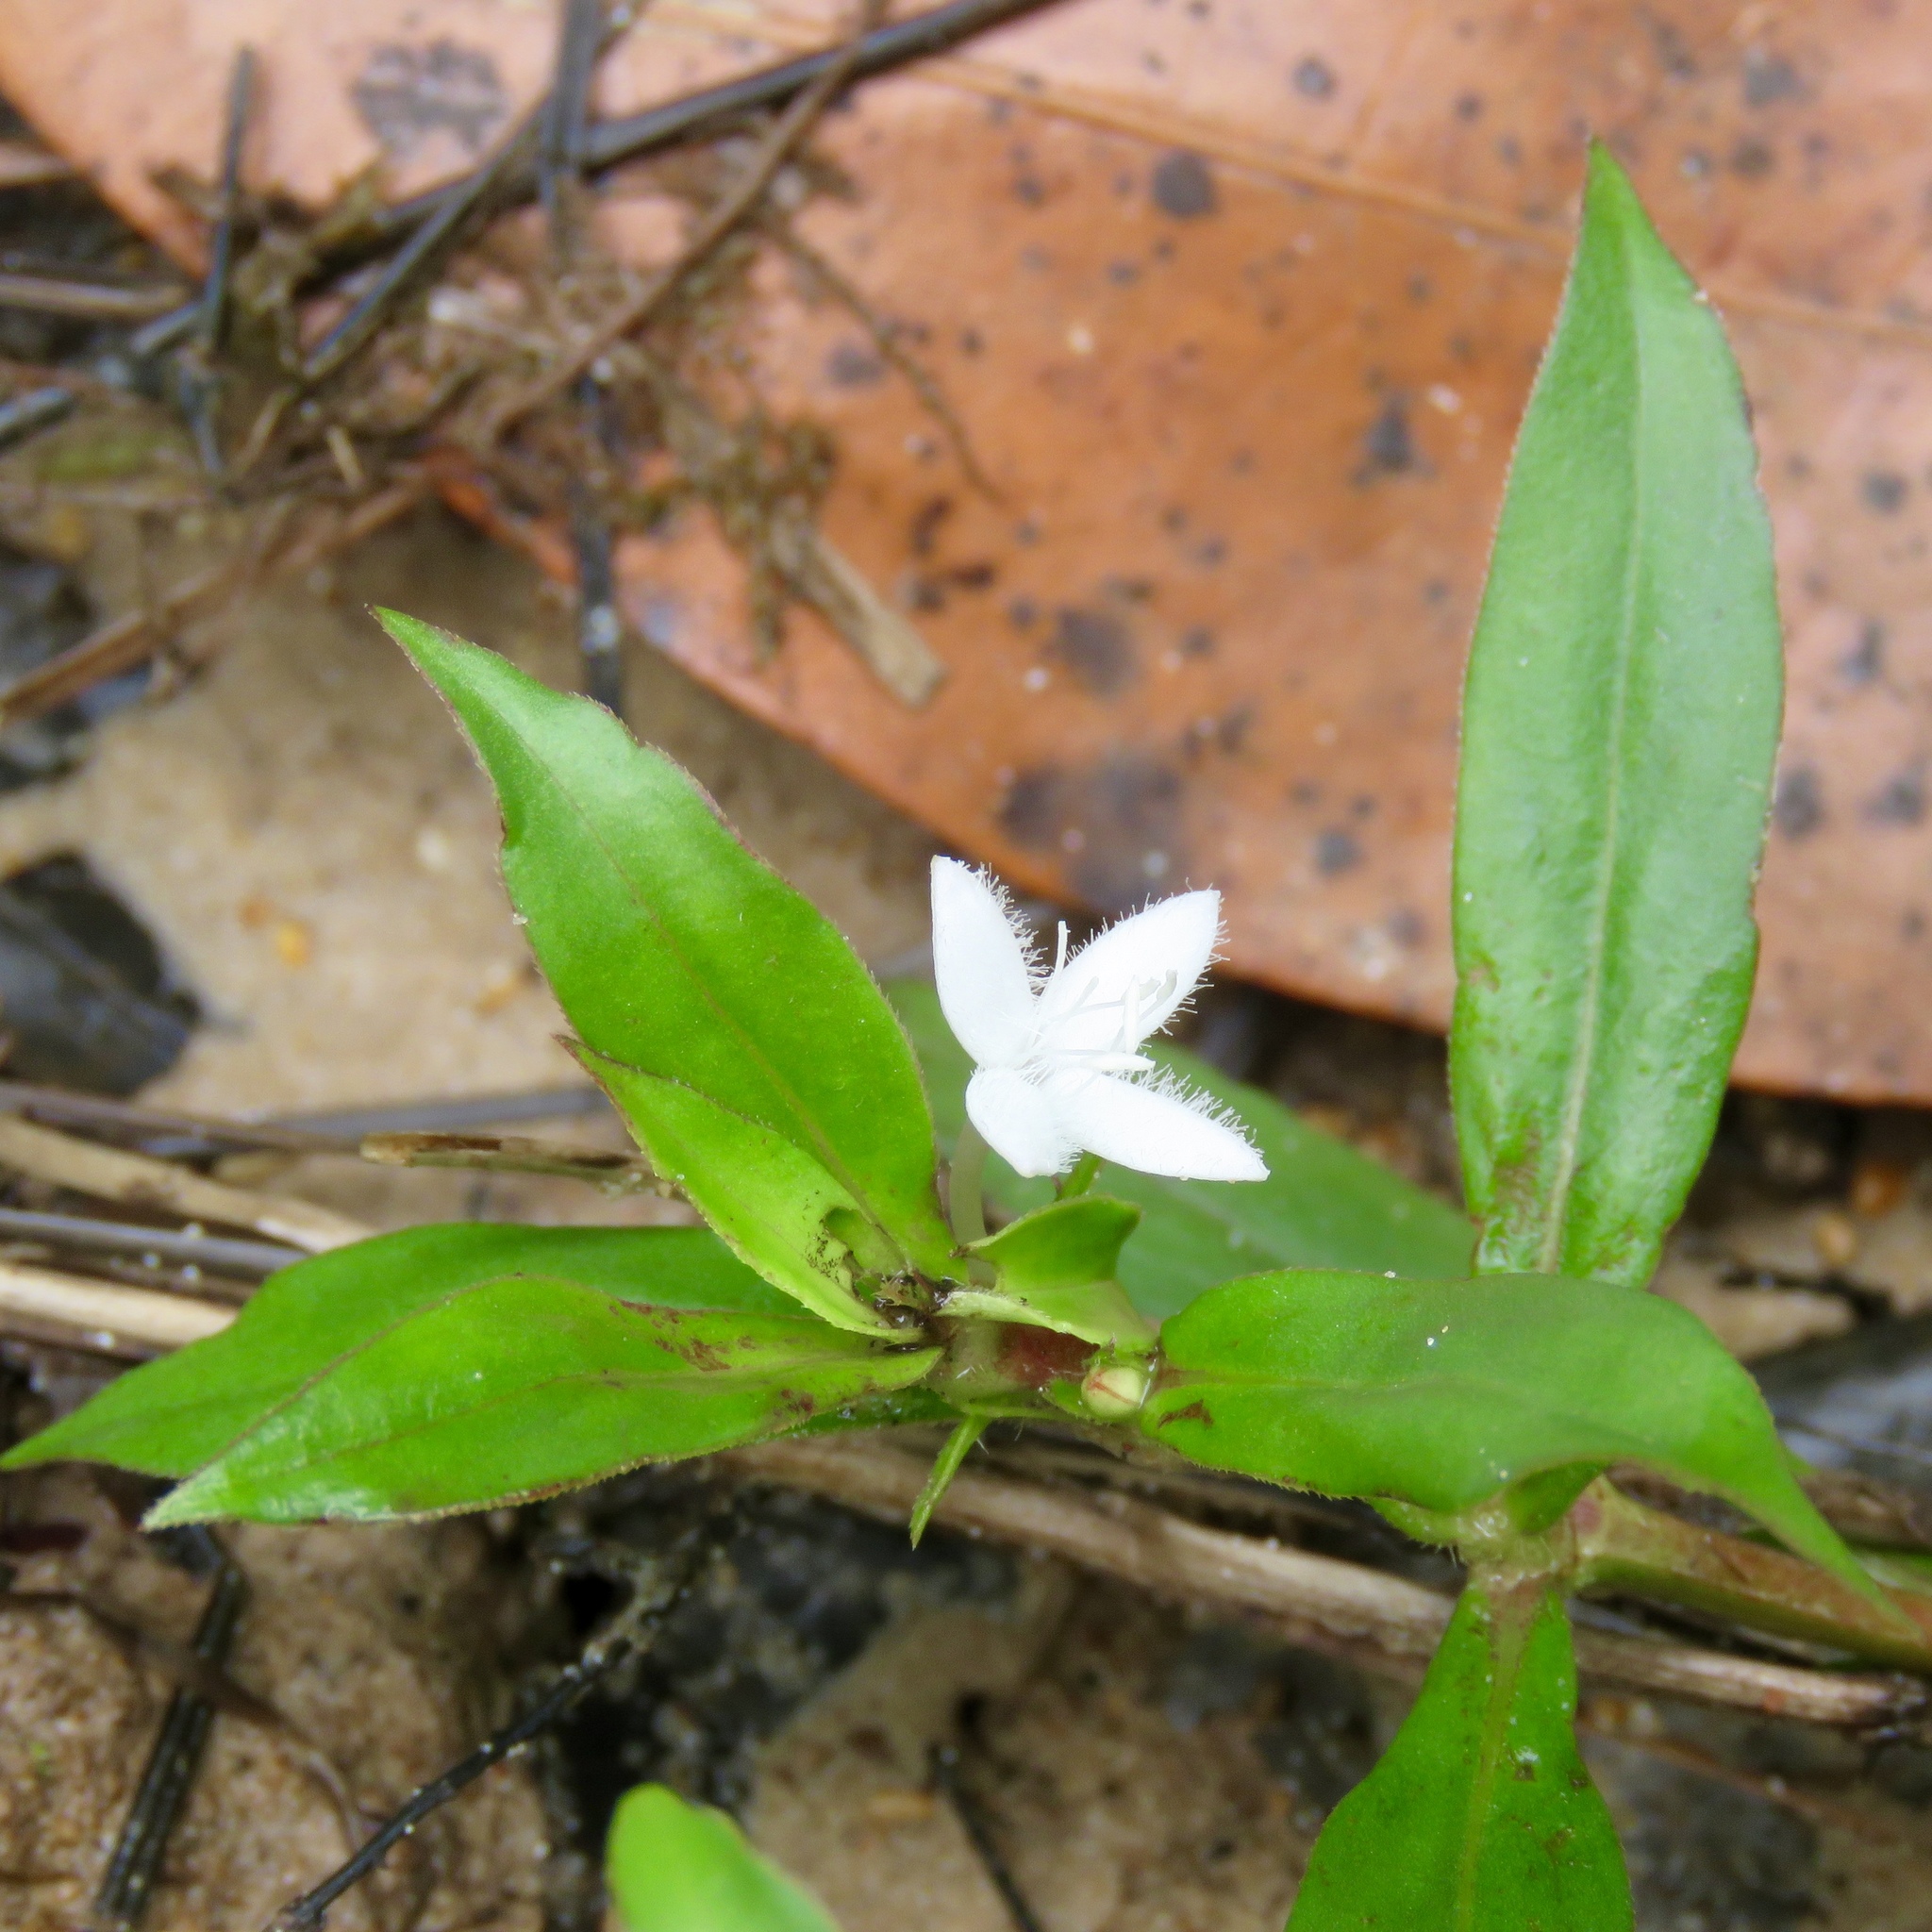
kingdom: Plantae
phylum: Tracheophyta
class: Magnoliopsida
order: Gentianales
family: Rubiaceae
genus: Diodia
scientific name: Diodia virginiana
